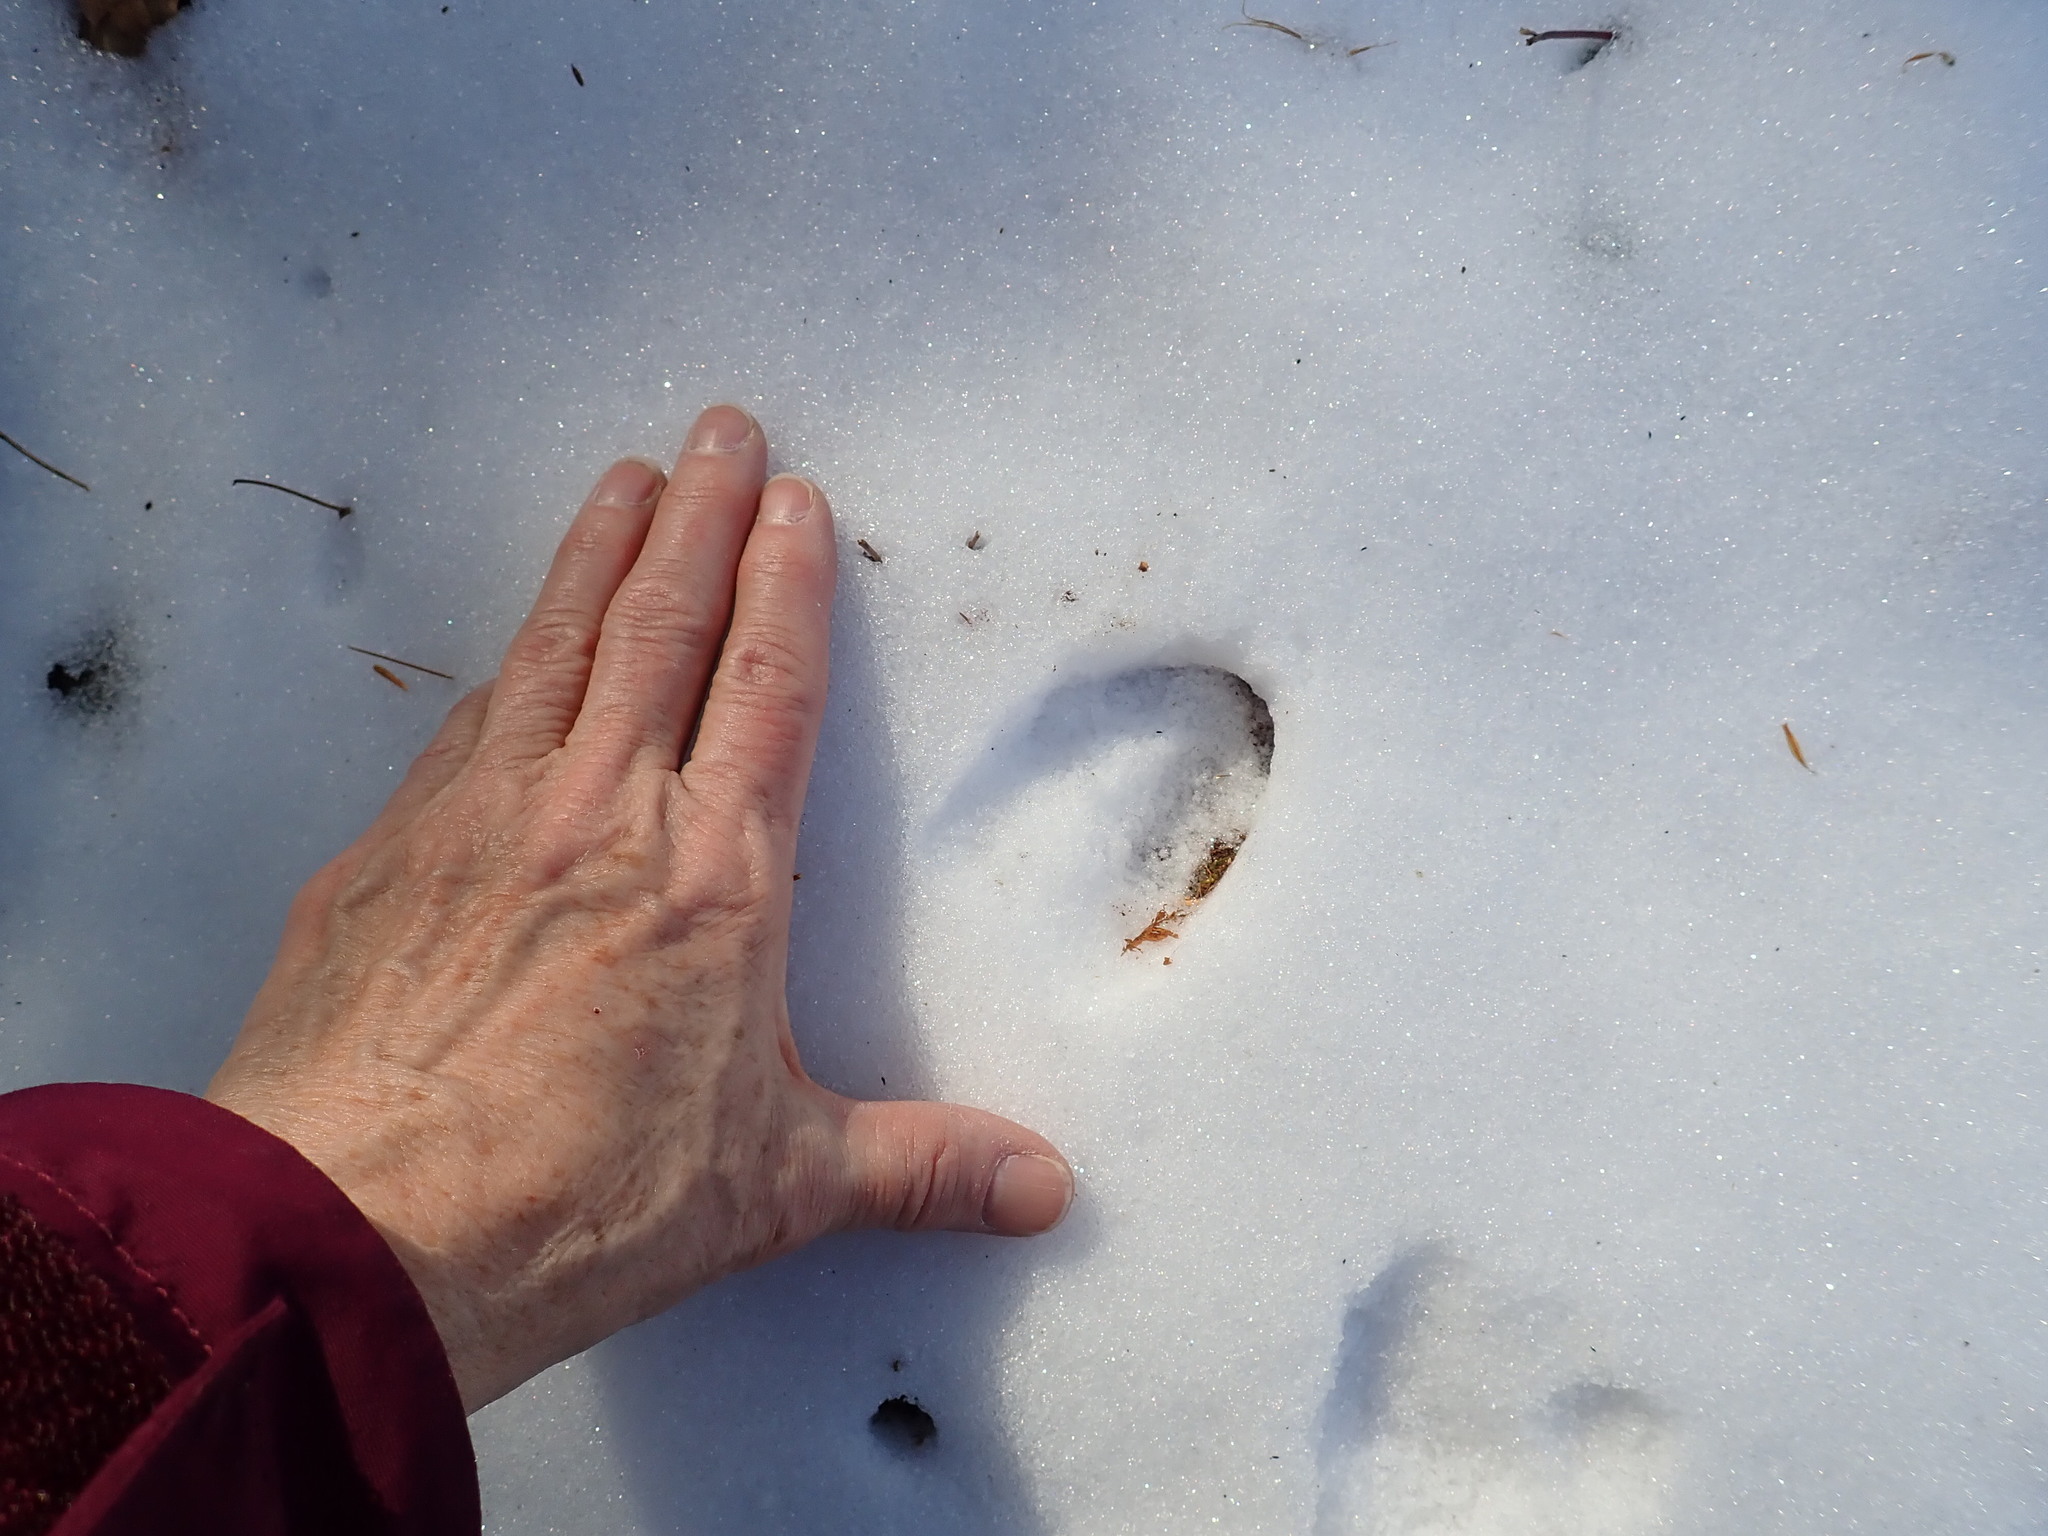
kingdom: Animalia
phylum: Chordata
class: Mammalia
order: Artiodactyla
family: Cervidae
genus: Odocoileus
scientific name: Odocoileus virginianus
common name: White-tailed deer
